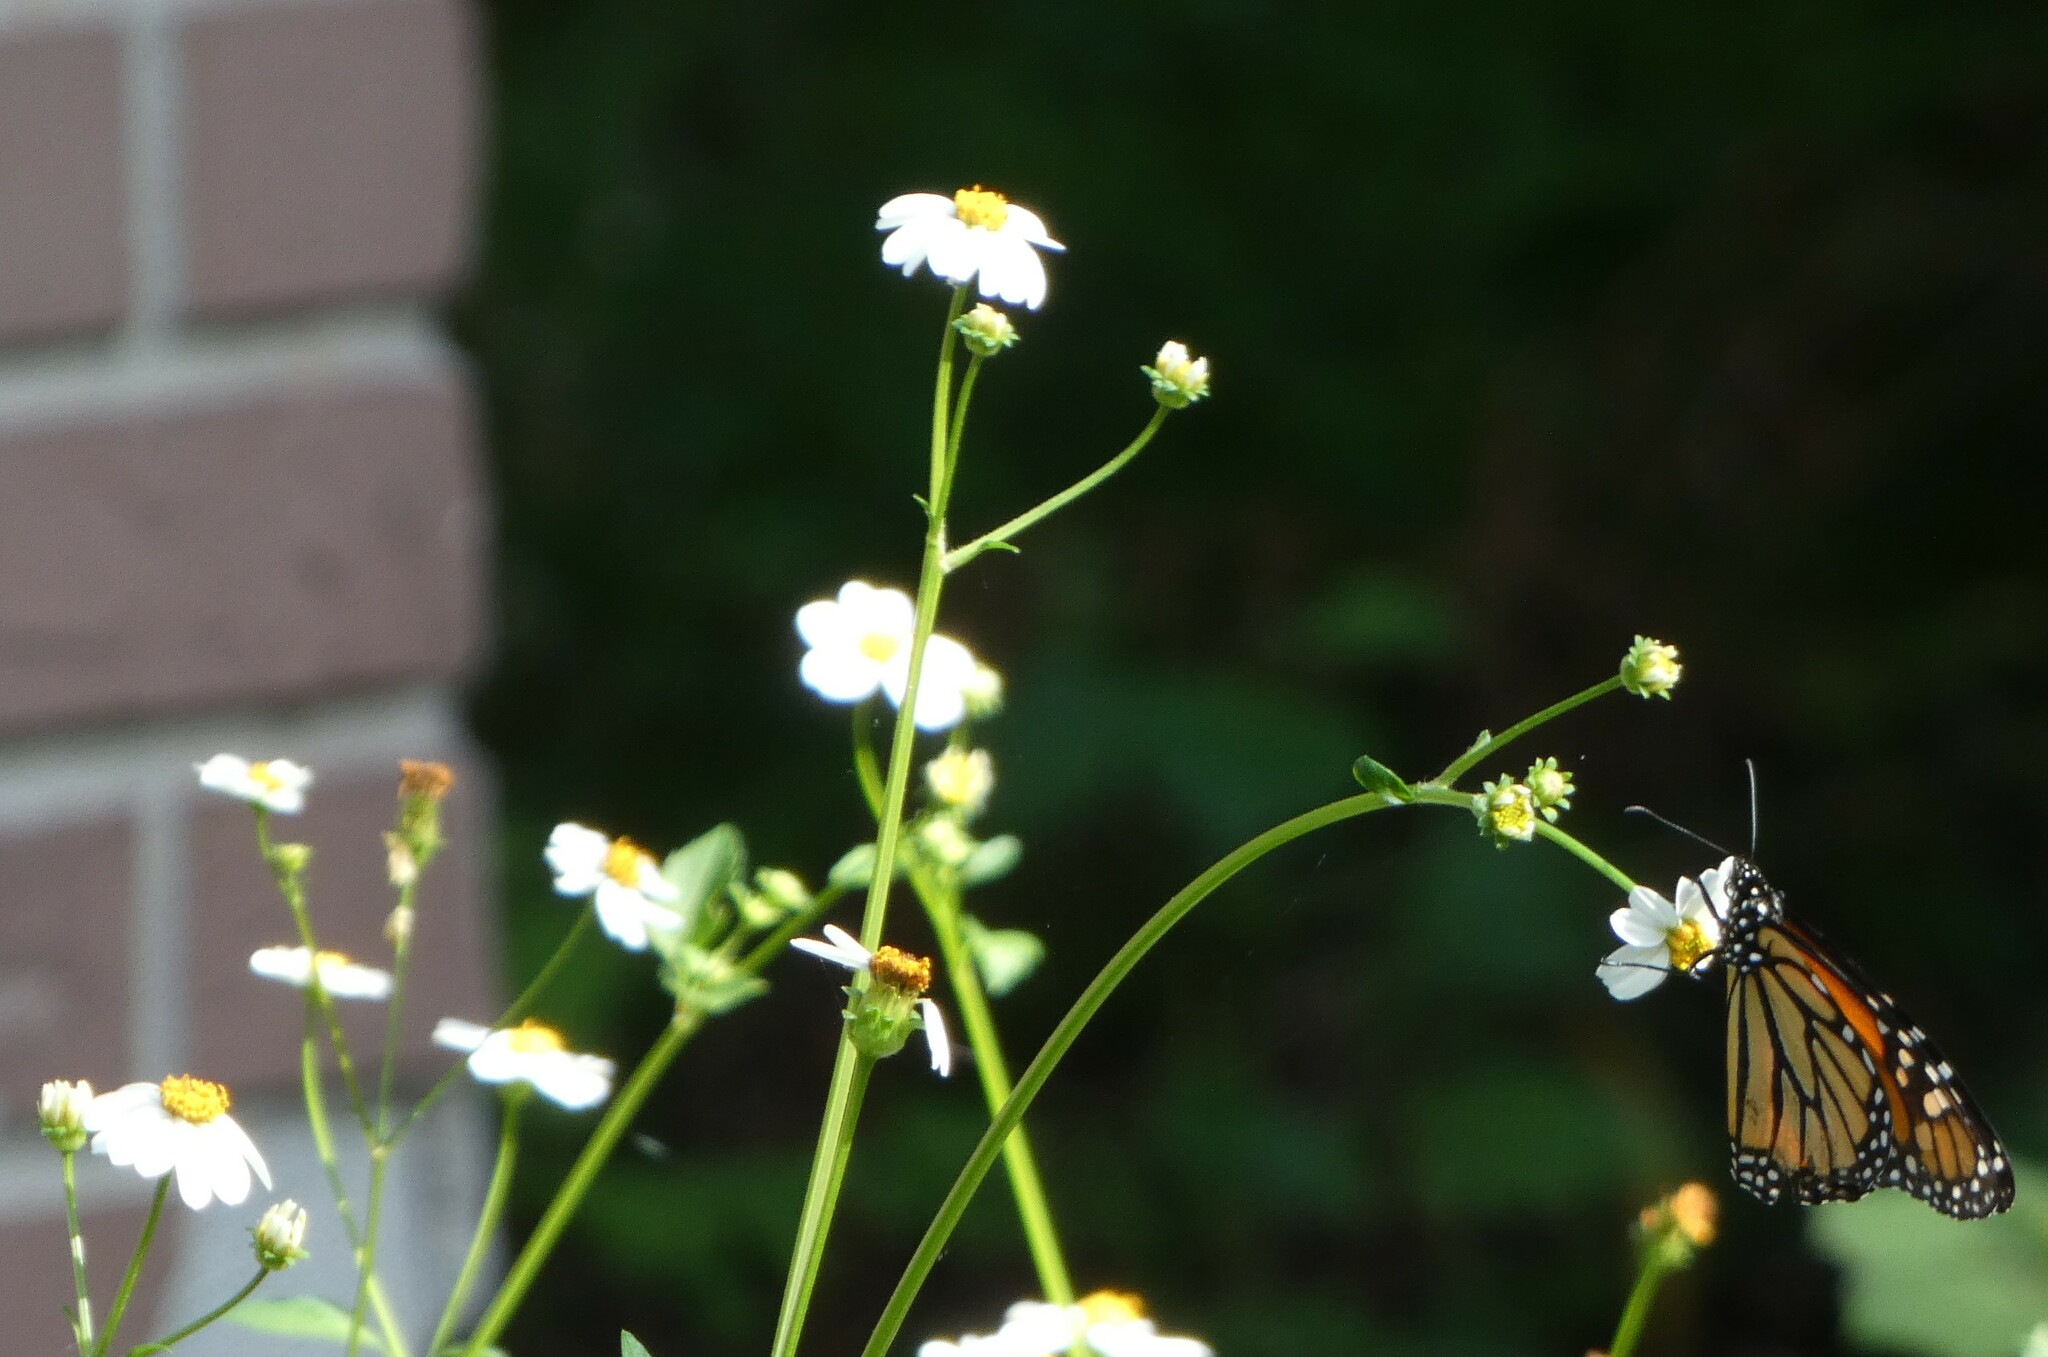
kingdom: Animalia
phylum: Arthropoda
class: Insecta
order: Lepidoptera
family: Nymphalidae
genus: Danaus
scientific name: Danaus plexippus
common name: Monarch
